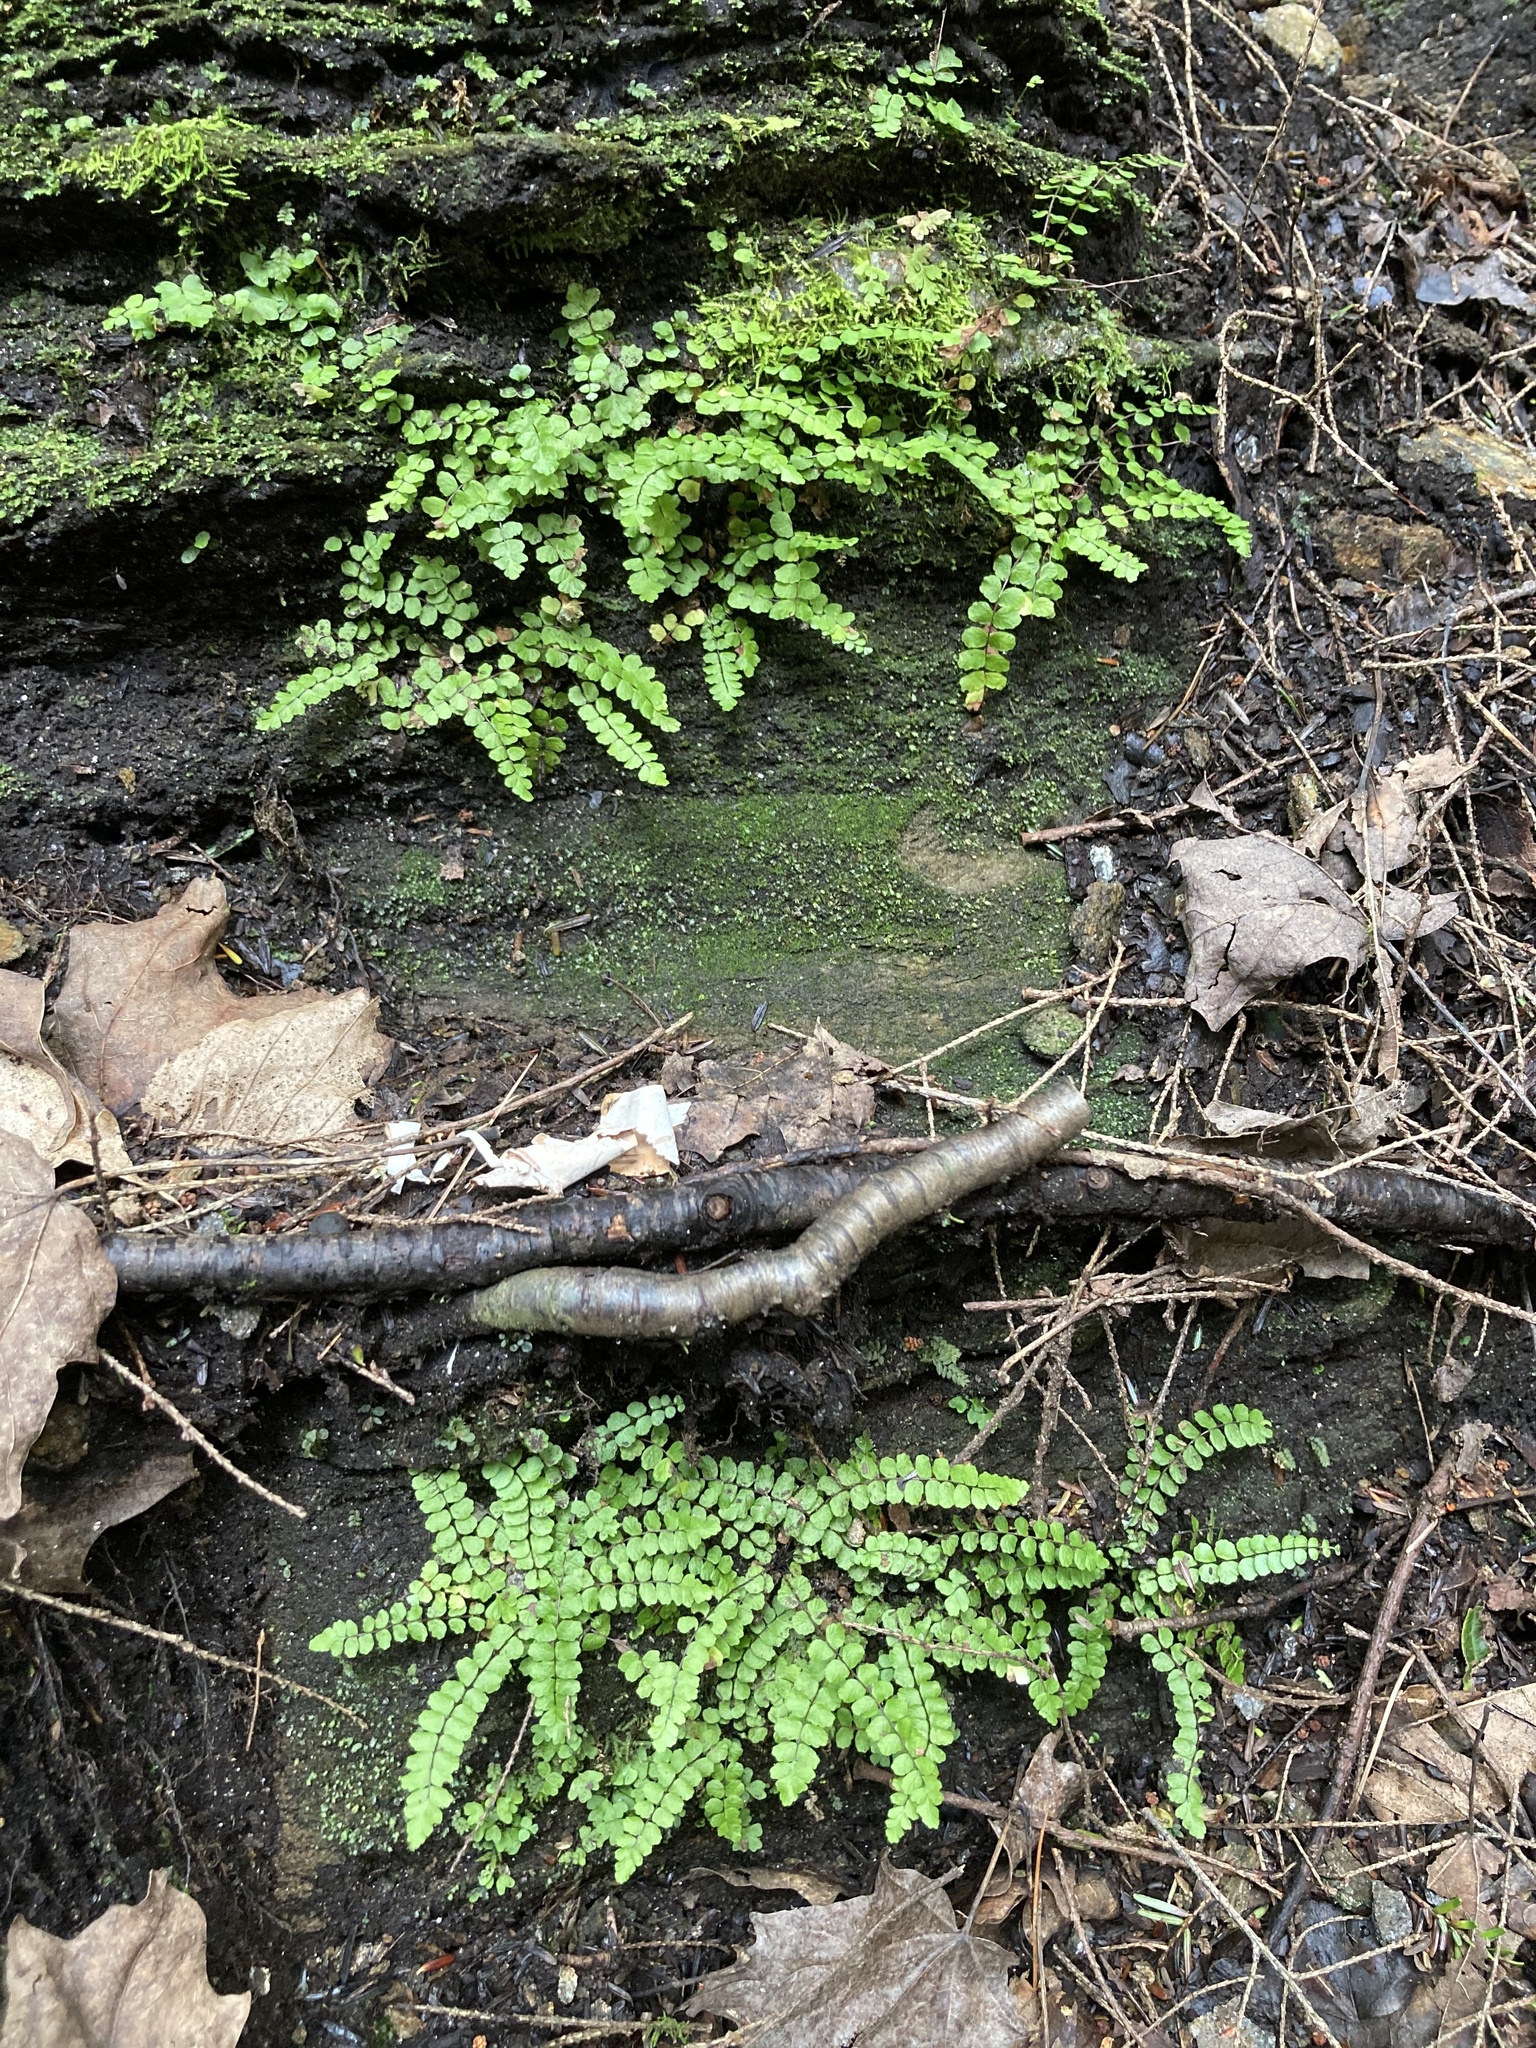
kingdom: Plantae
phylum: Tracheophyta
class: Polypodiopsida
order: Polypodiales
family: Aspleniaceae
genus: Asplenium
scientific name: Asplenium trichomanes
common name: Maidenhair spleenwort
